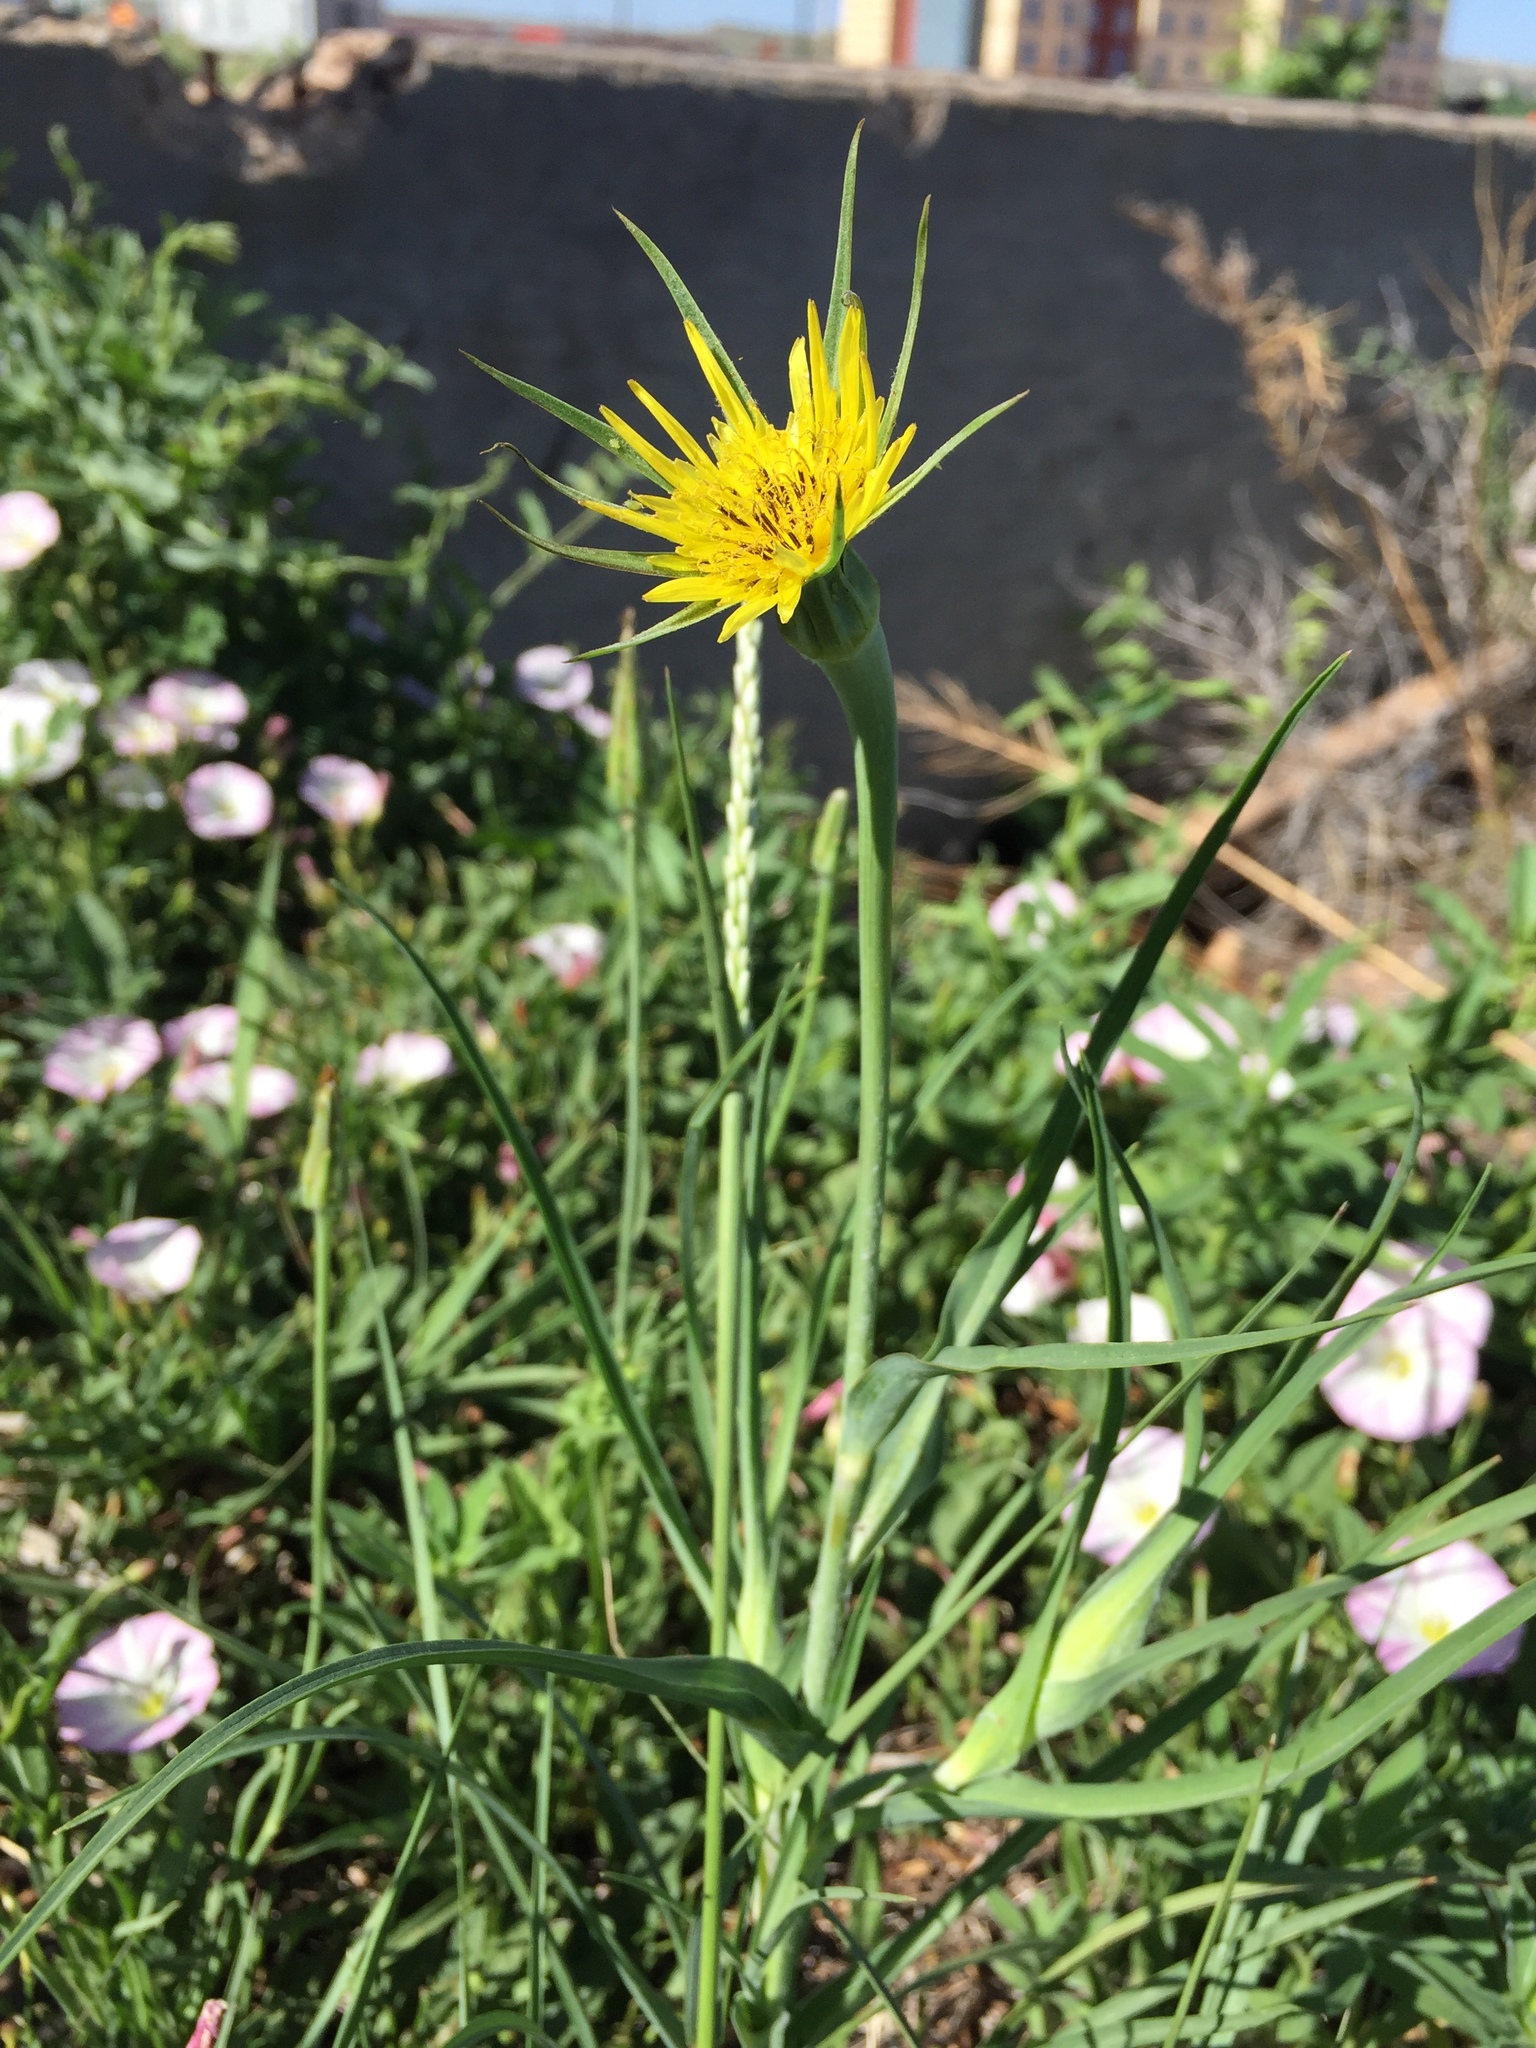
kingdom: Plantae
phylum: Tracheophyta
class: Magnoliopsida
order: Asterales
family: Asteraceae
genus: Tragopogon
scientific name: Tragopogon dubius
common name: Yellow salsify
